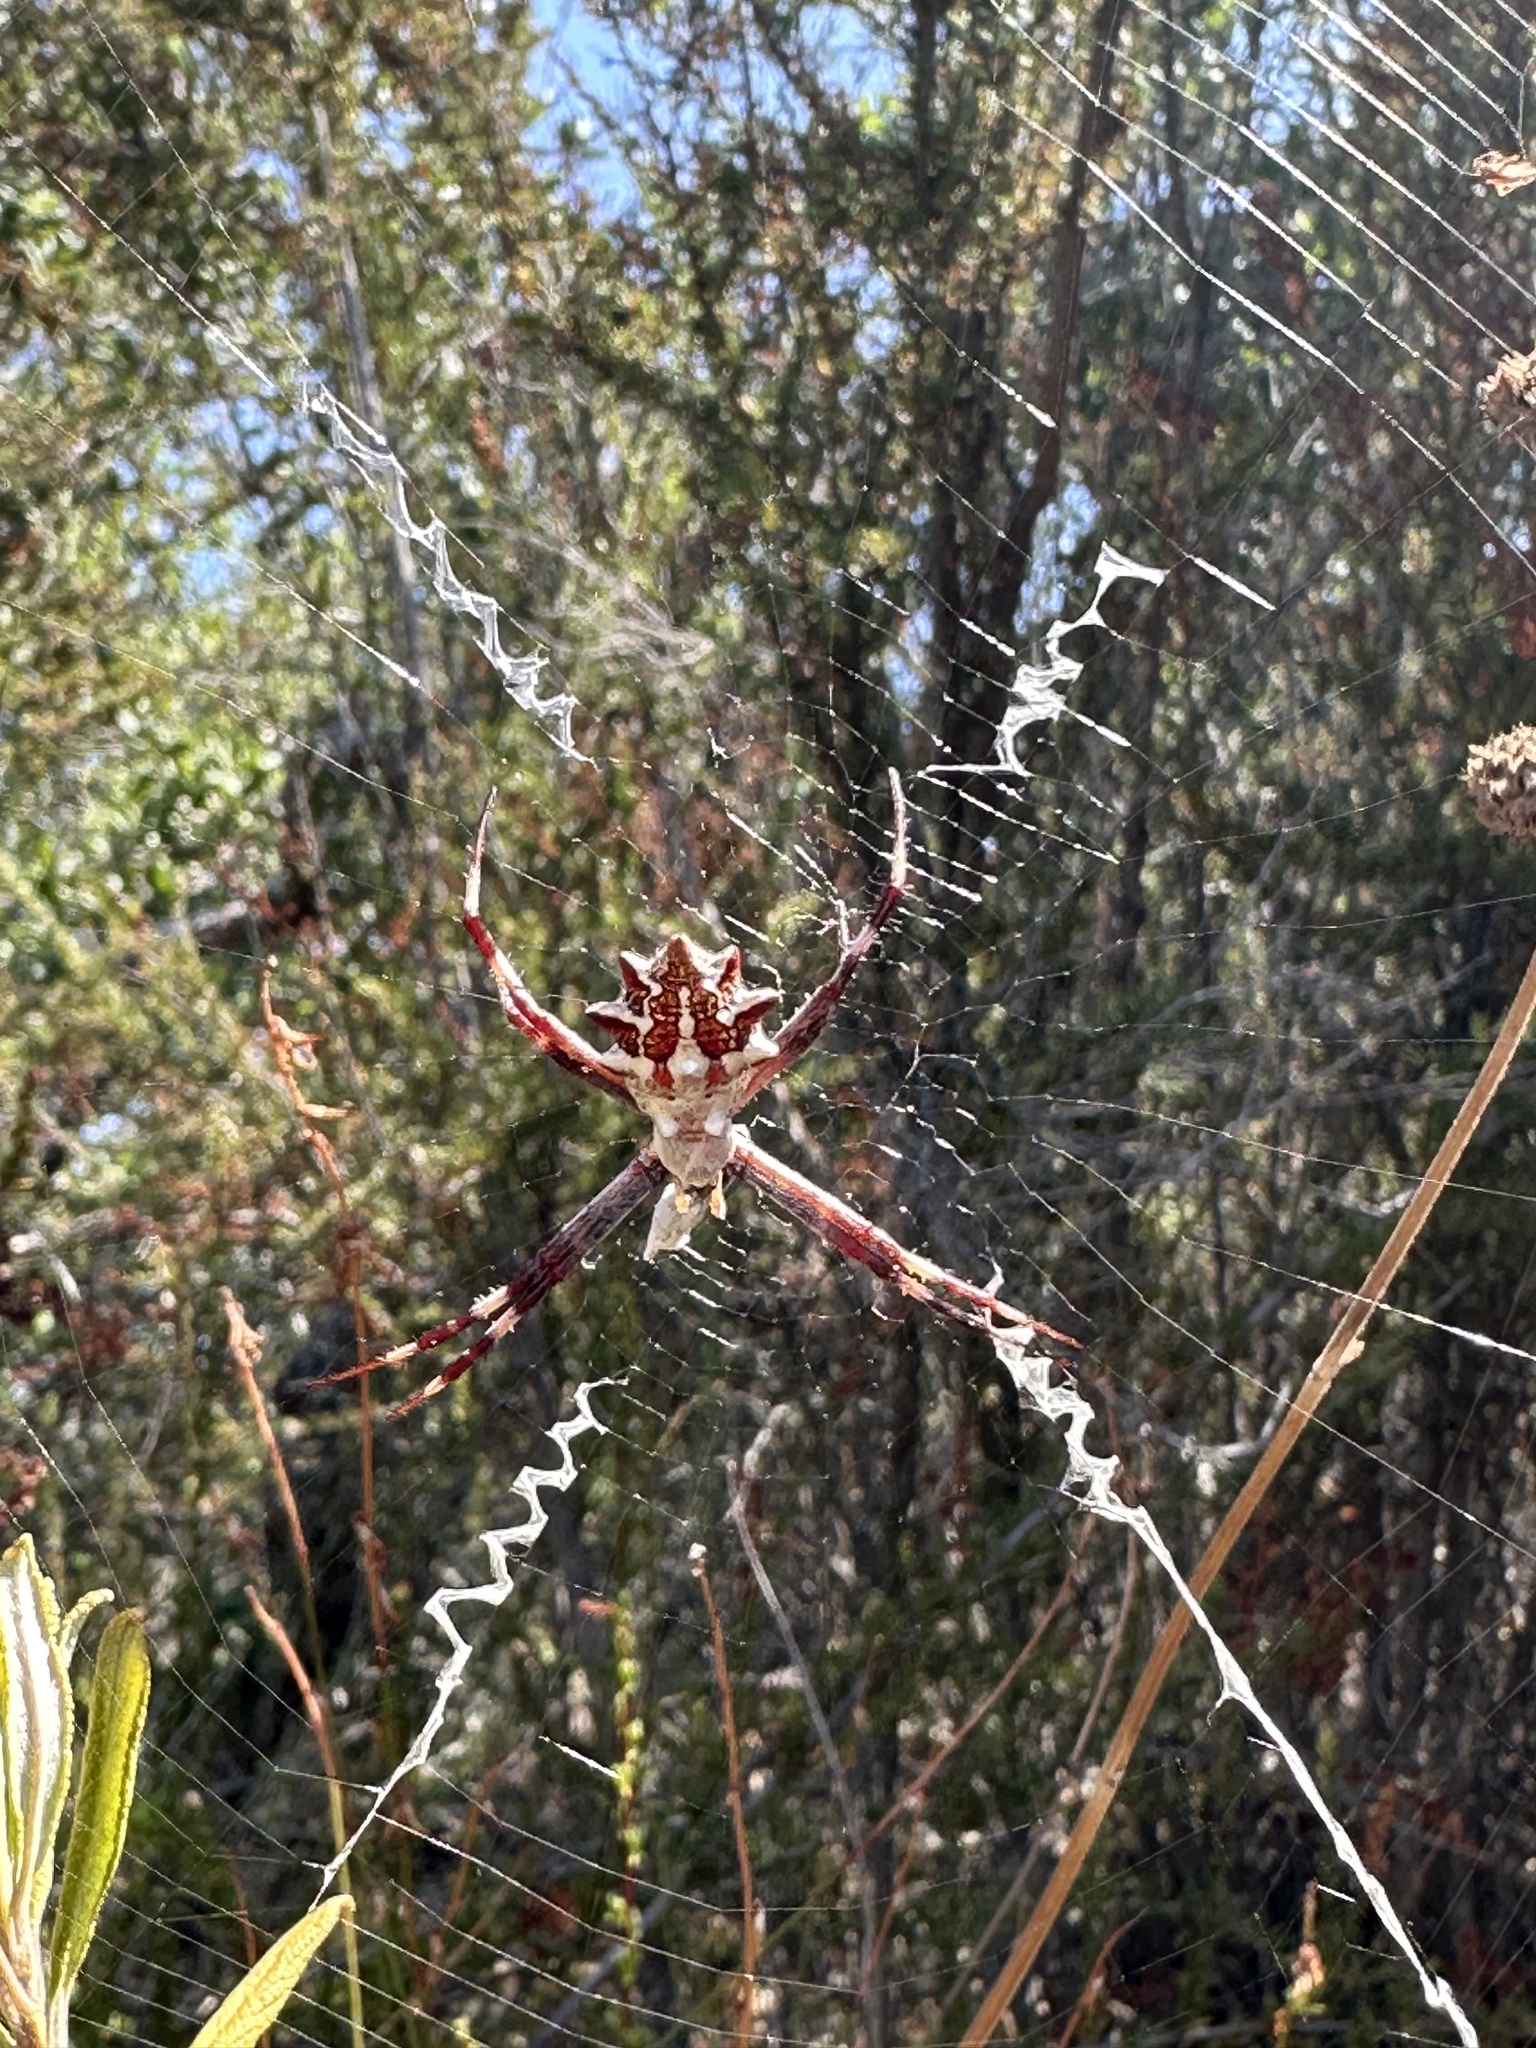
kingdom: Animalia
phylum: Arthropoda
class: Arachnida
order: Araneae
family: Araneidae
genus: Argiope
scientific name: Argiope argentata
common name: Orb weavers
